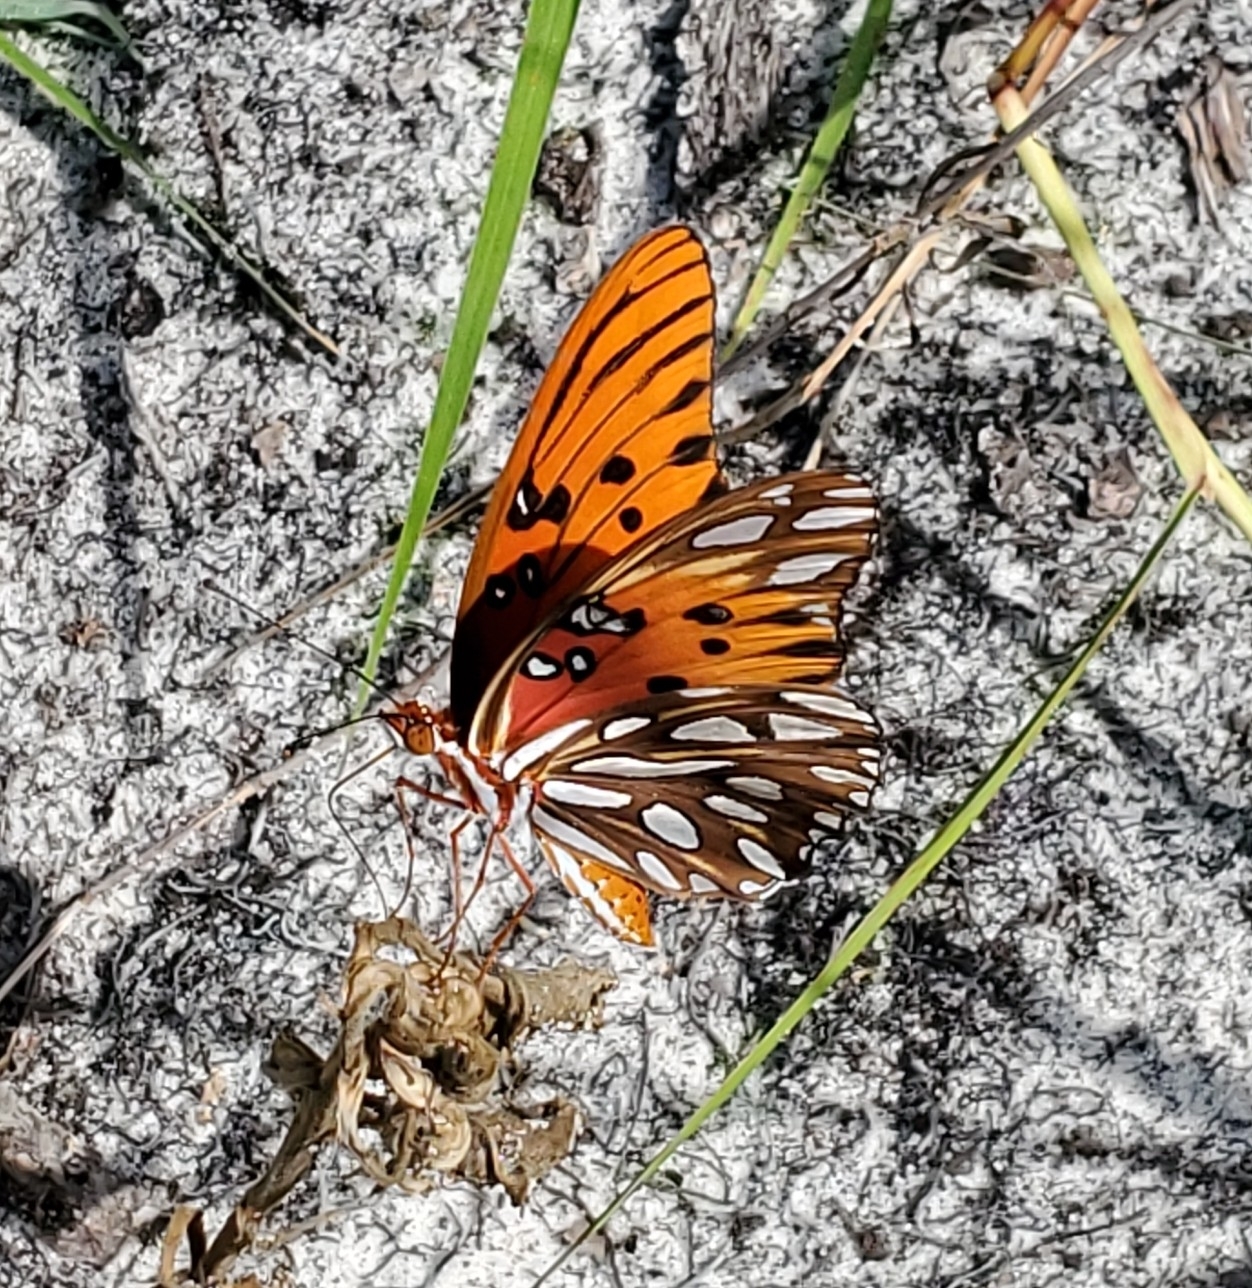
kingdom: Animalia
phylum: Arthropoda
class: Insecta
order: Lepidoptera
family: Nymphalidae
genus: Dione
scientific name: Dione vanillae
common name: Gulf fritillary
